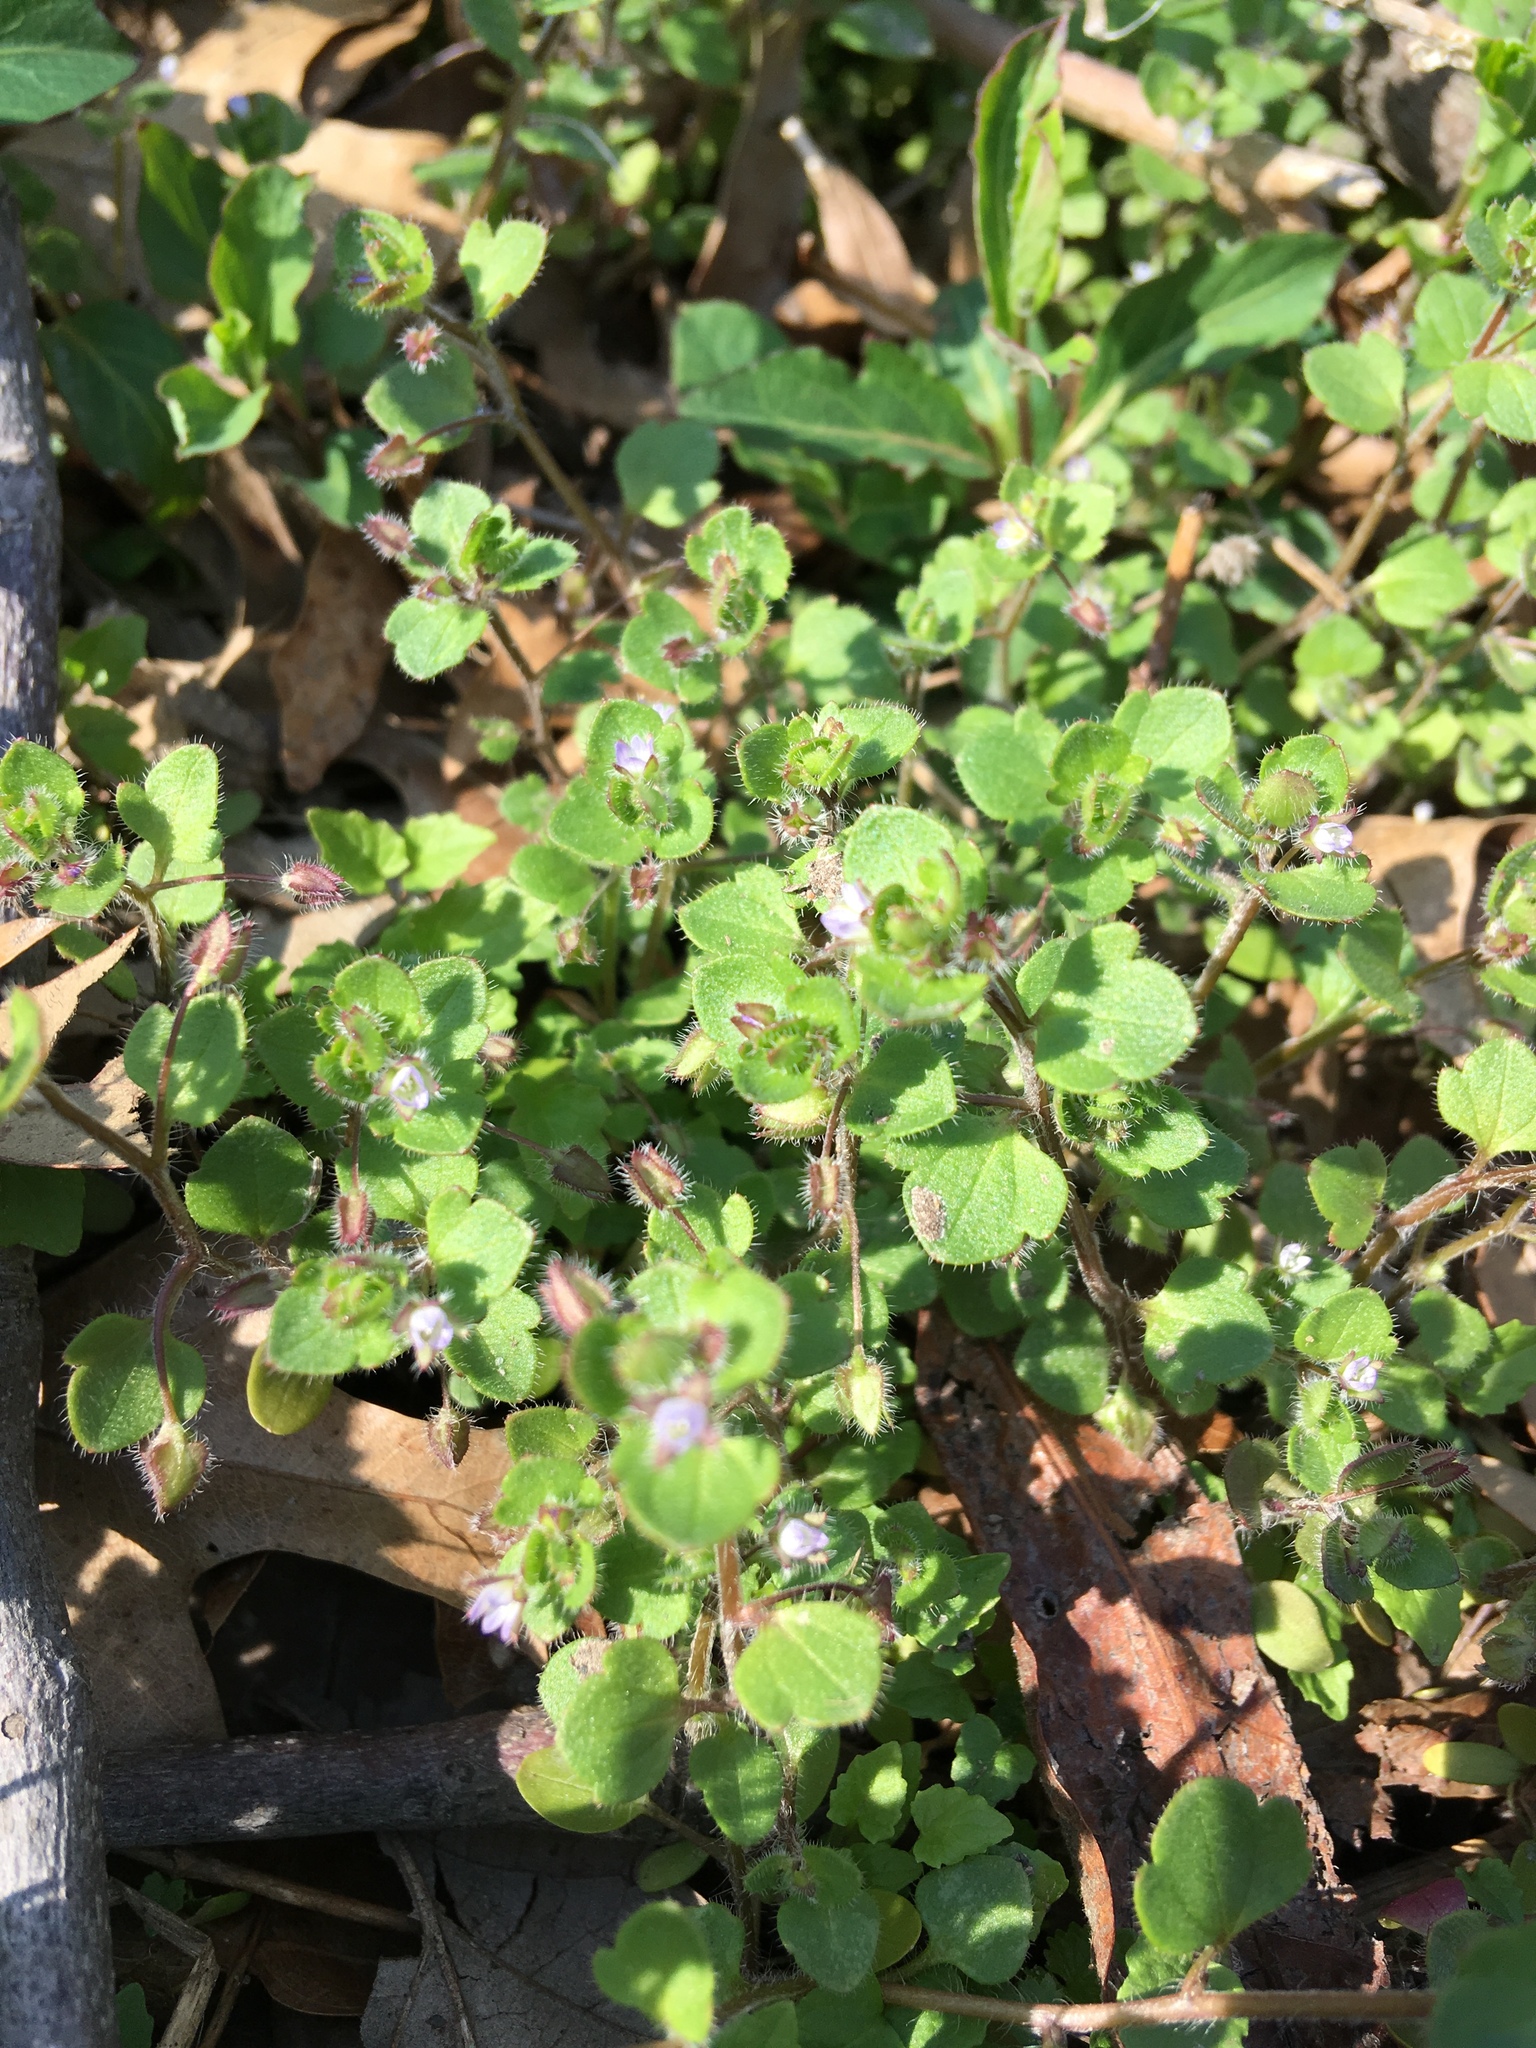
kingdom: Plantae
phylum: Tracheophyta
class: Magnoliopsida
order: Lamiales
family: Plantaginaceae
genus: Veronica
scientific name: Veronica hederifolia
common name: Ivy-leaved speedwell
